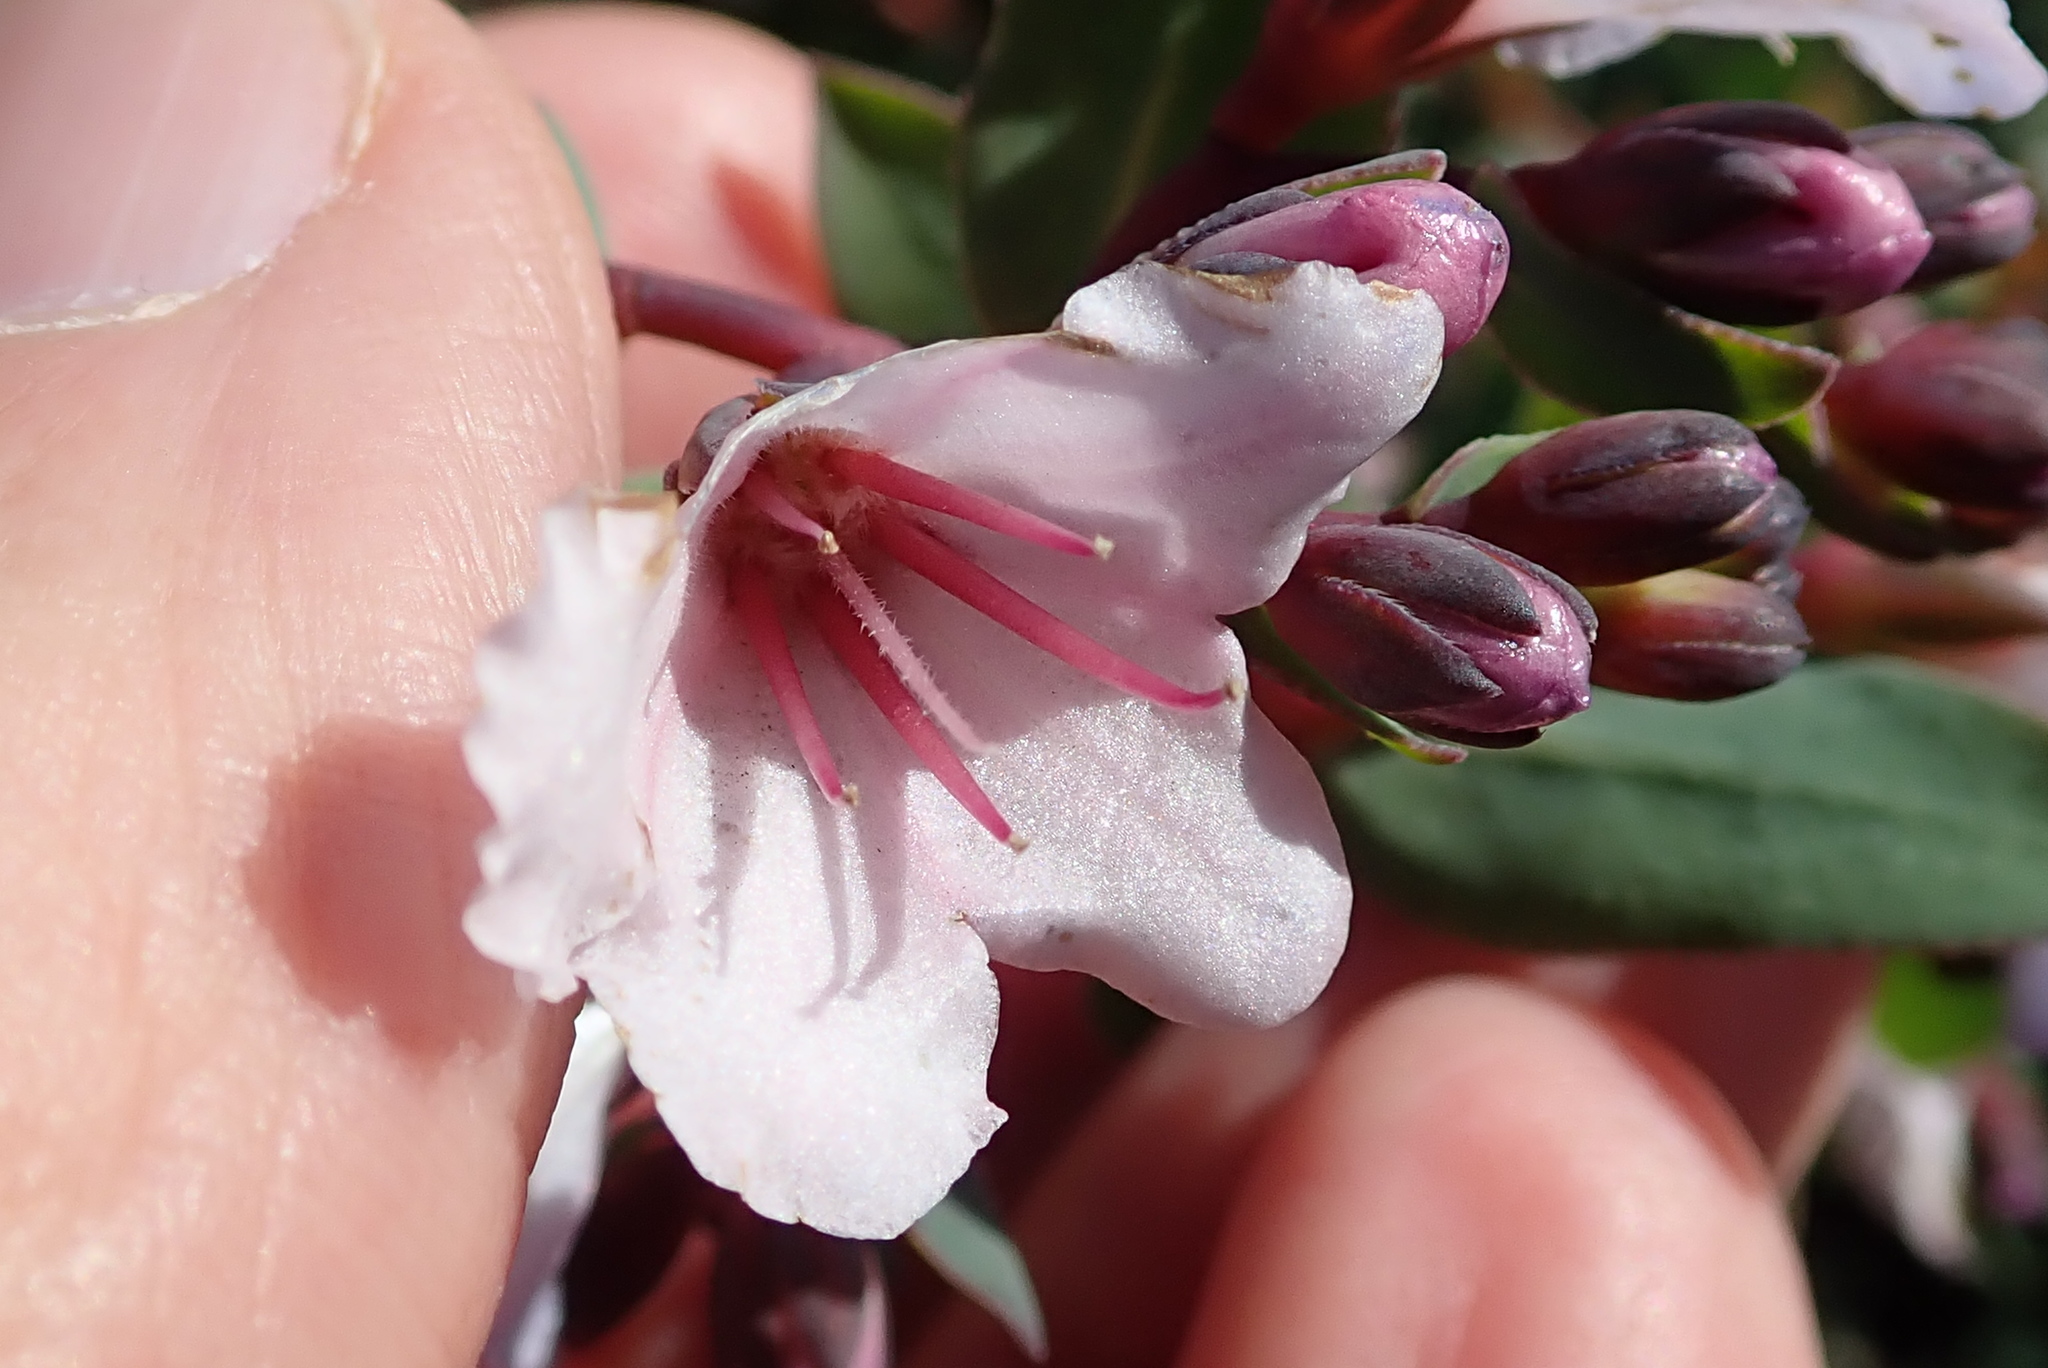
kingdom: Plantae
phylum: Tracheophyta
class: Magnoliopsida
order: Boraginales
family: Boraginaceae
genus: Lobostemon
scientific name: Lobostemon glaucophyllus
